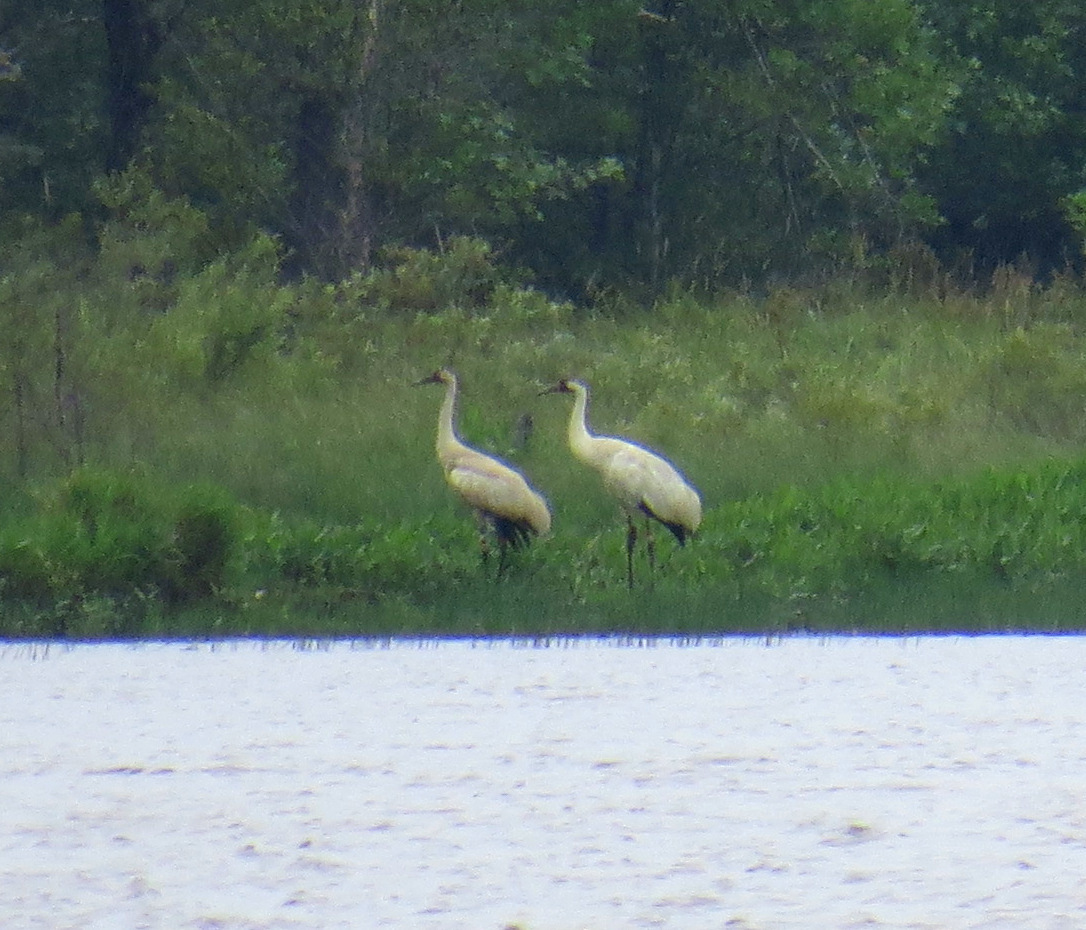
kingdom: Animalia
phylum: Chordata
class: Aves
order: Gruiformes
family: Gruidae
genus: Grus
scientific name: Grus americana
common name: Whooping crane
